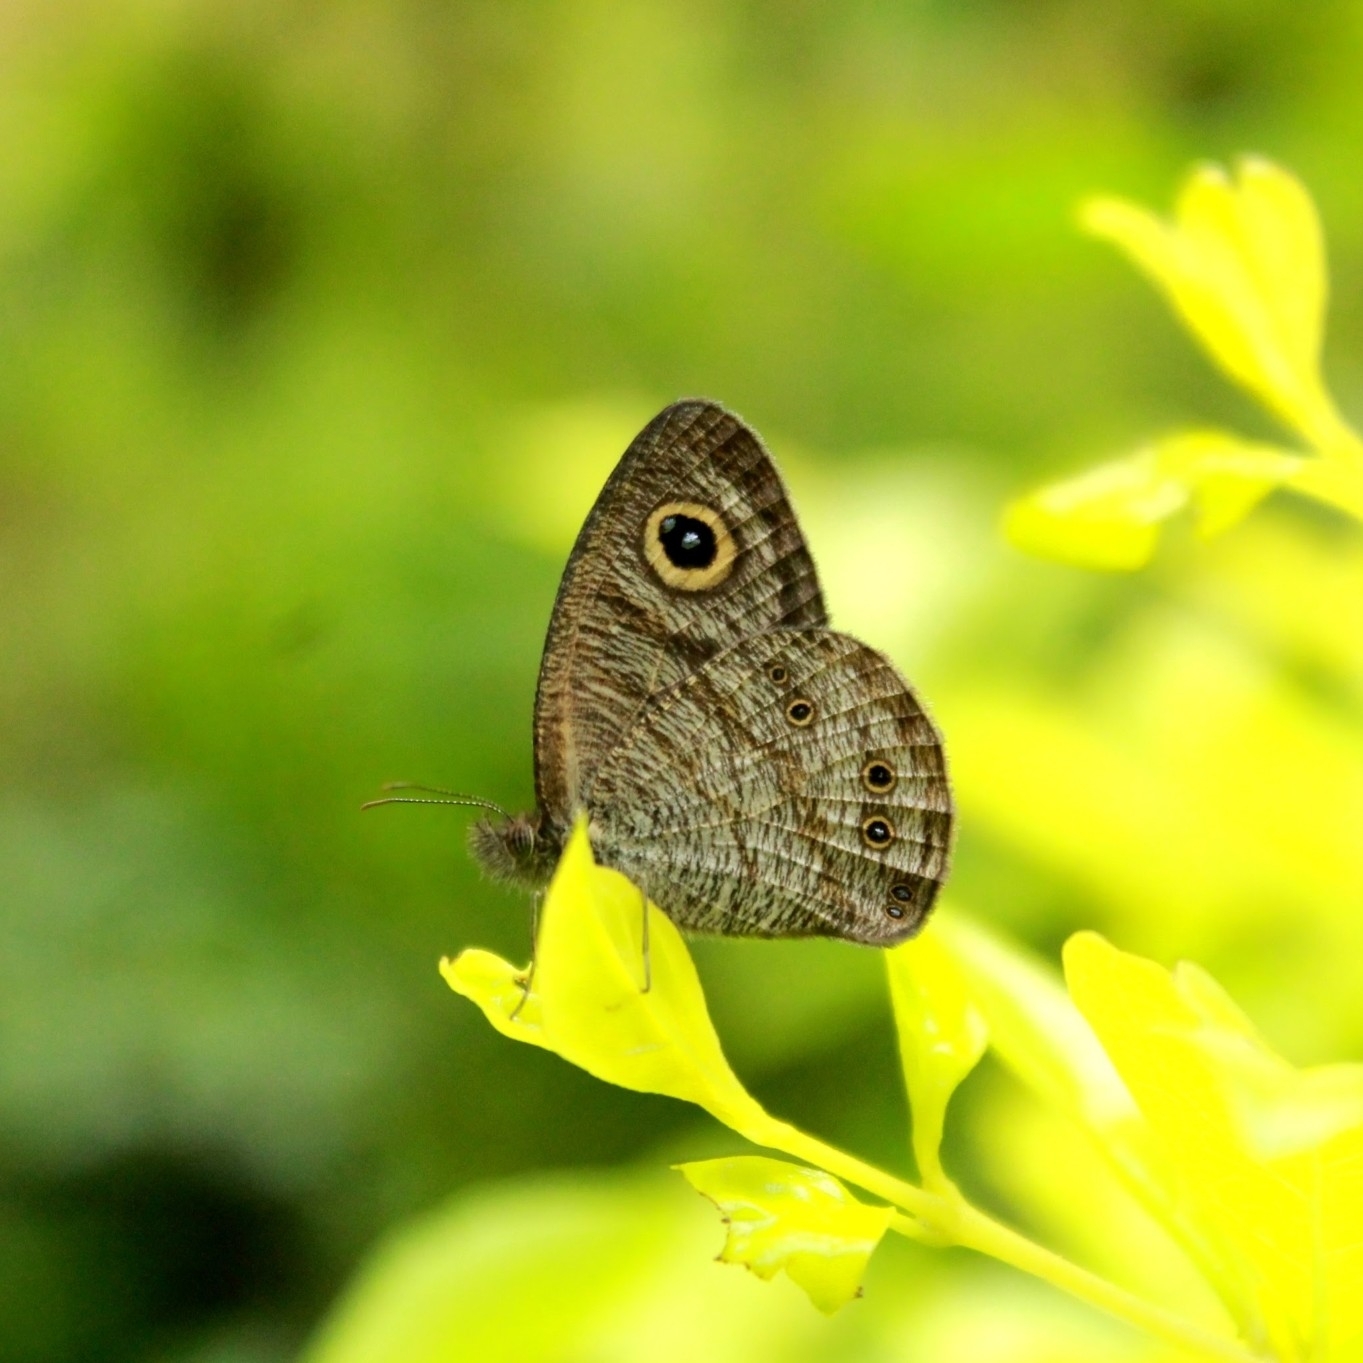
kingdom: Animalia
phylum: Arthropoda
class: Insecta
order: Lepidoptera
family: Nymphalidae
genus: Ypthima
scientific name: Ypthima baldus
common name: Common five-ring
